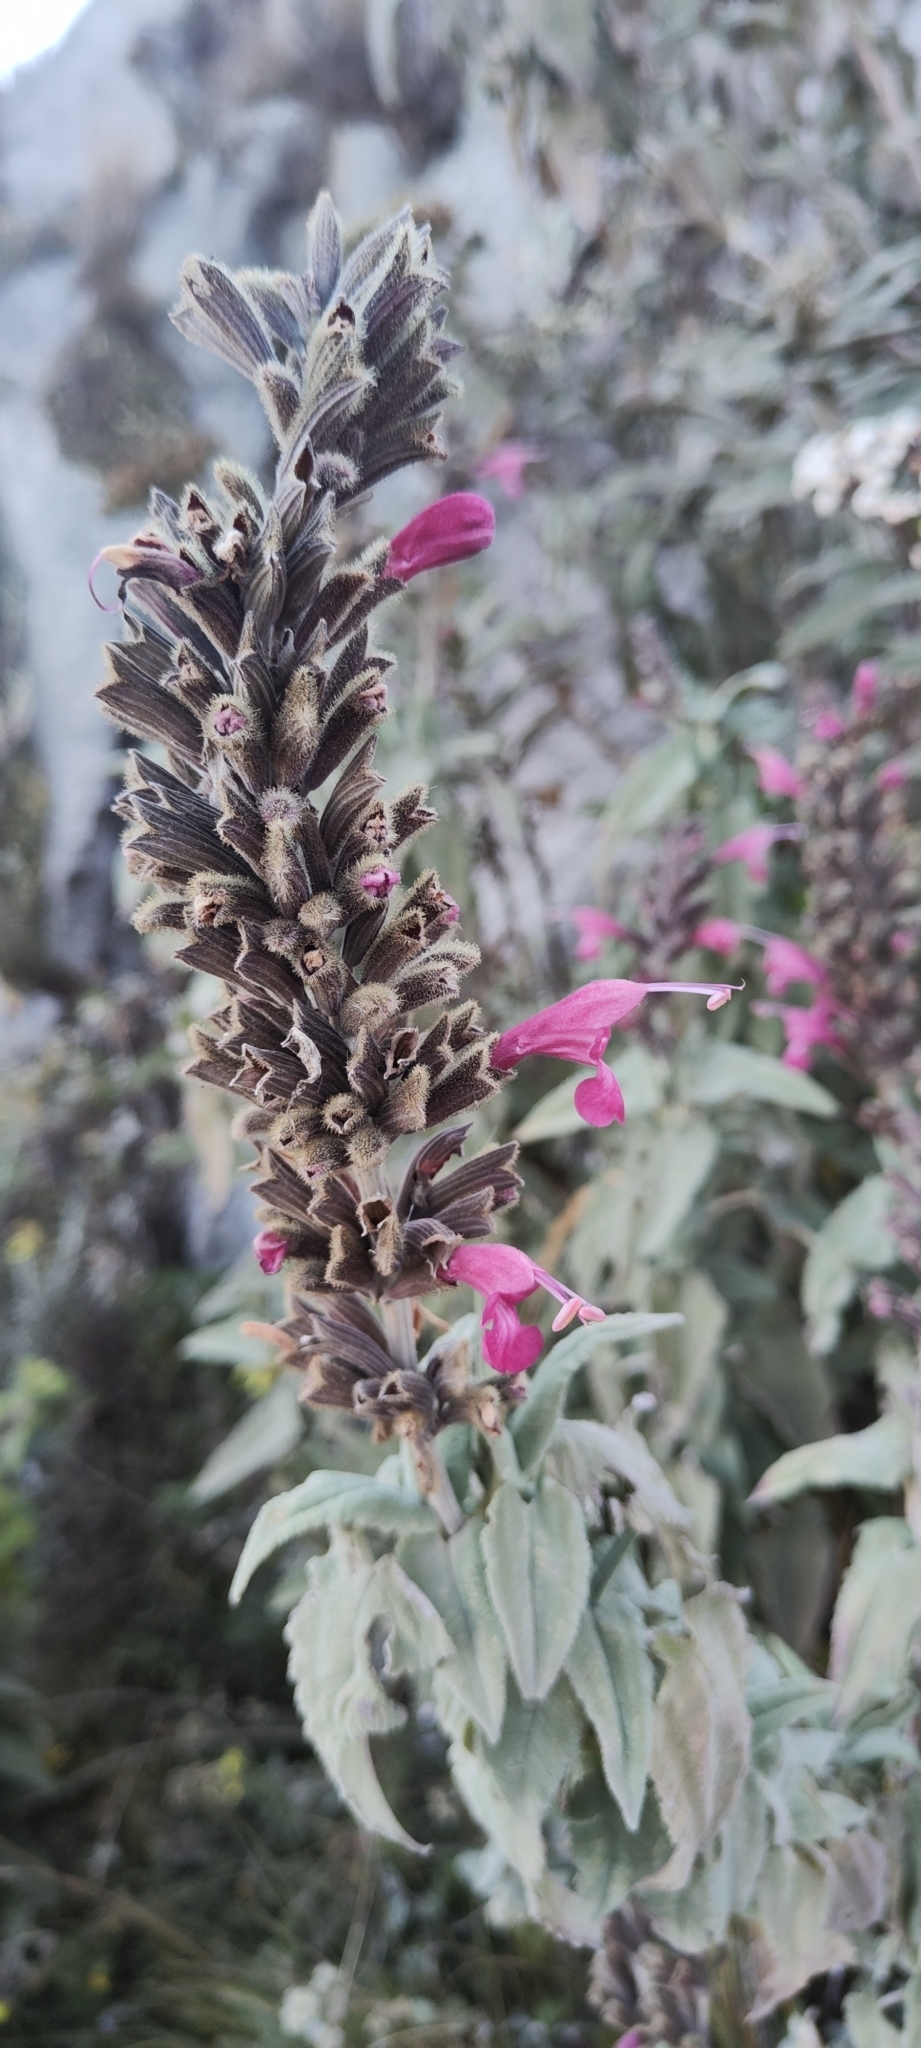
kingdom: Plantae
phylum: Tracheophyta
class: Magnoliopsida
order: Lamiales
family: Lamiaceae
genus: Salvia
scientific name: Salvia lanicaulis
